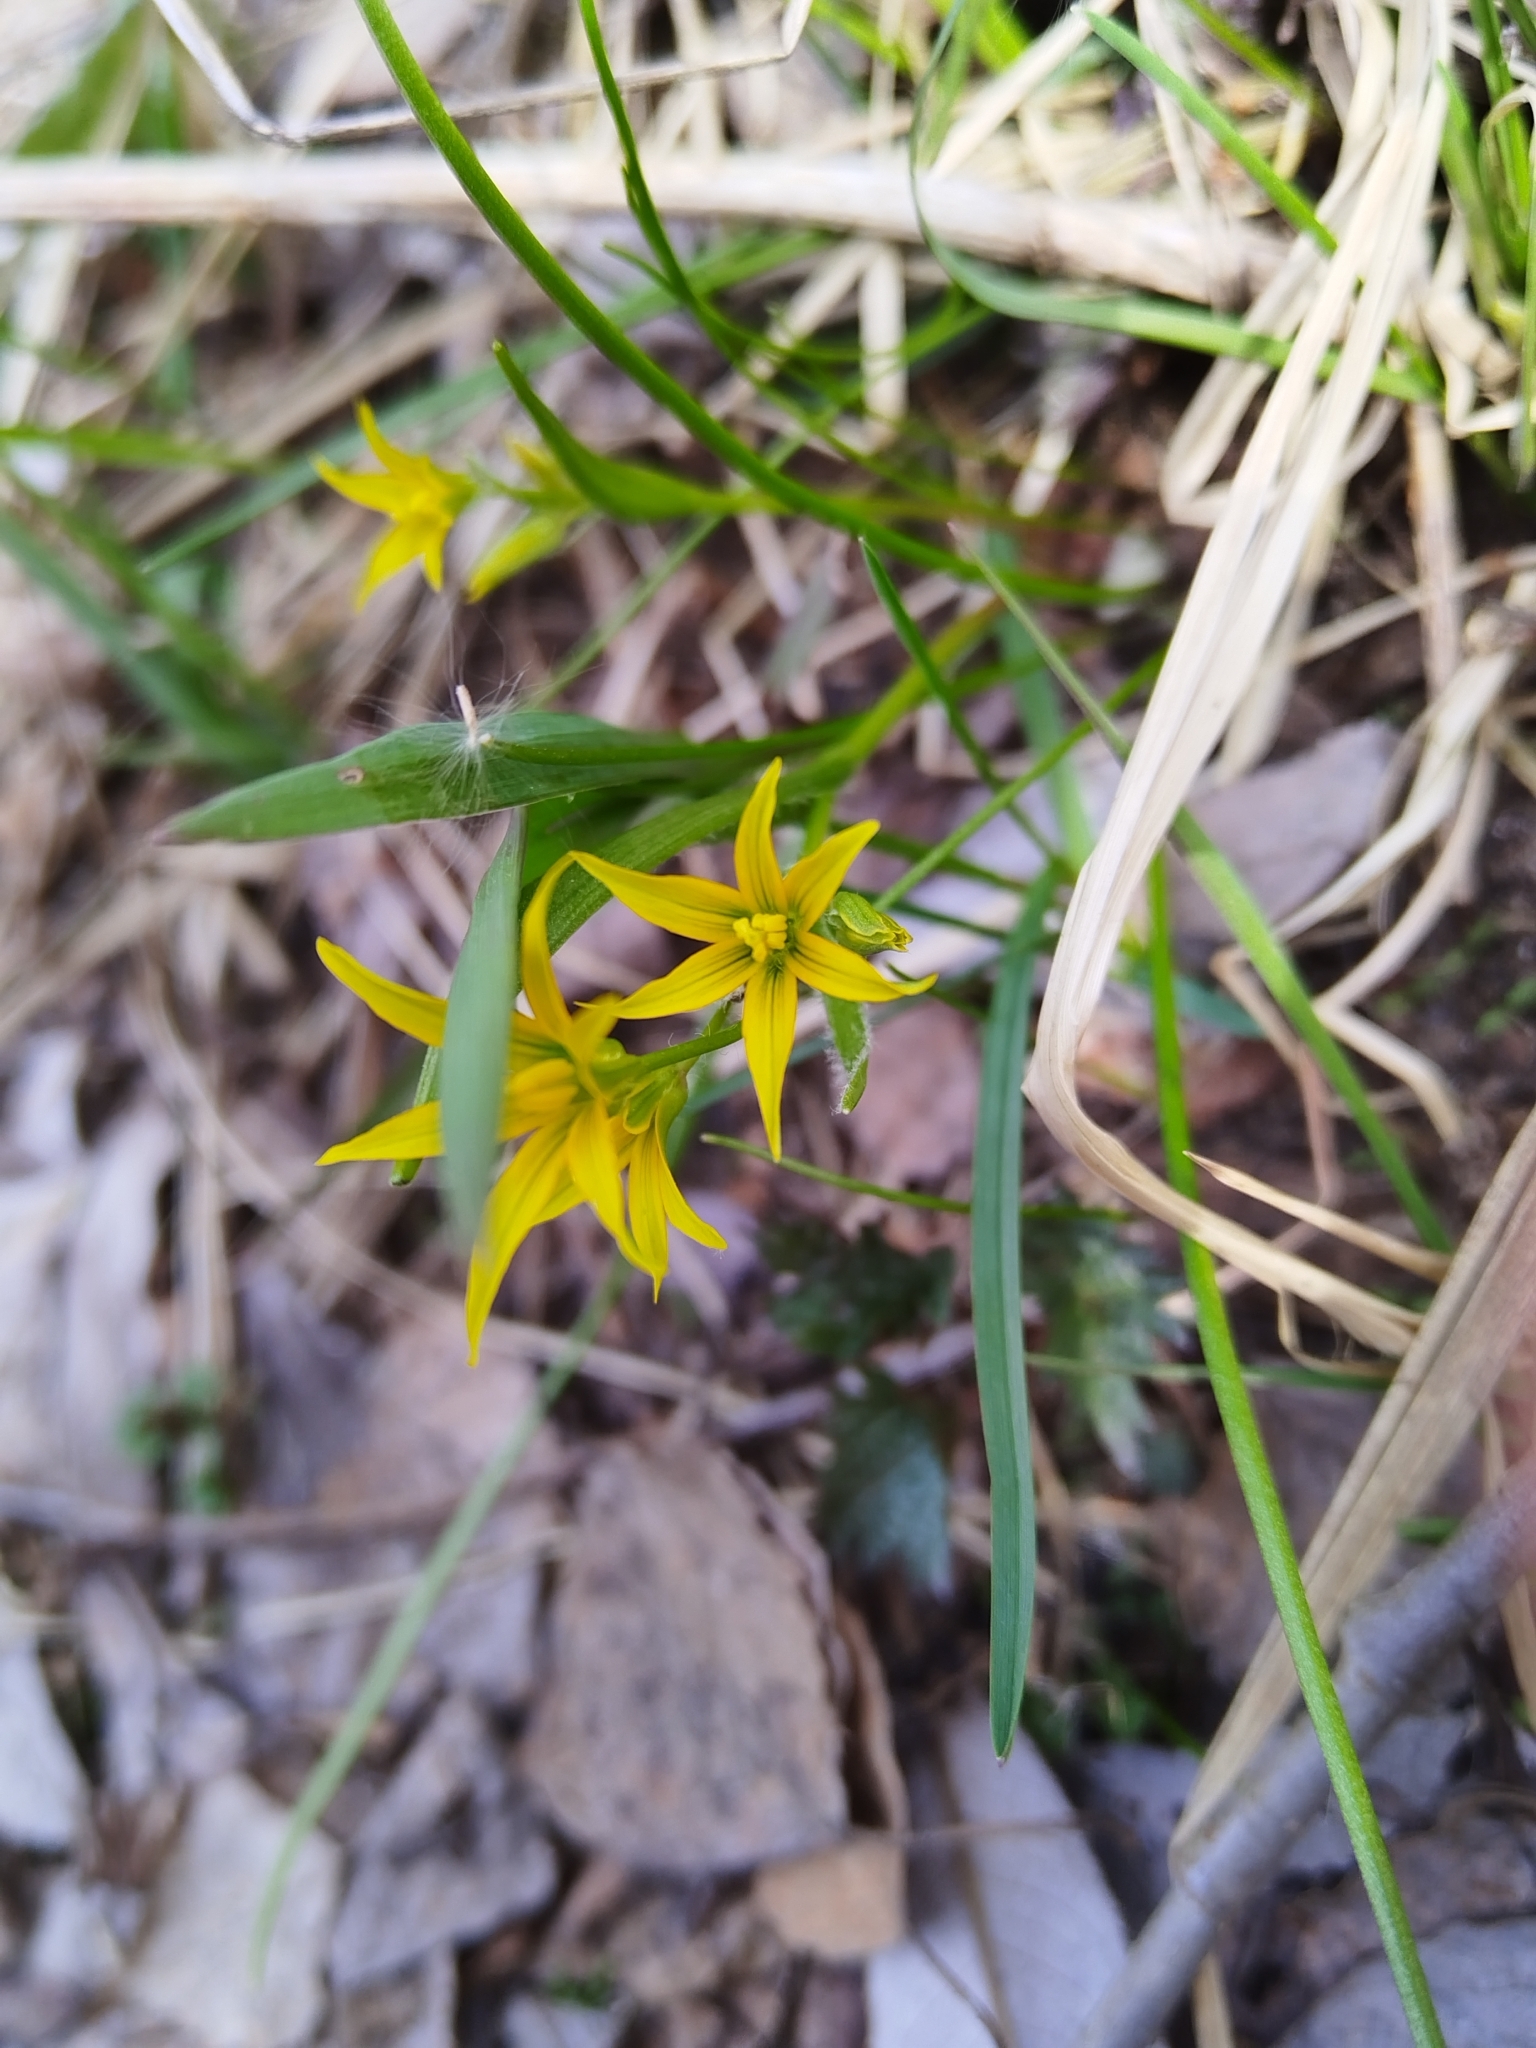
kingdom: Plantae
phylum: Tracheophyta
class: Liliopsida
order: Liliales
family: Liliaceae
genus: Gagea
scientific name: Gagea minima
